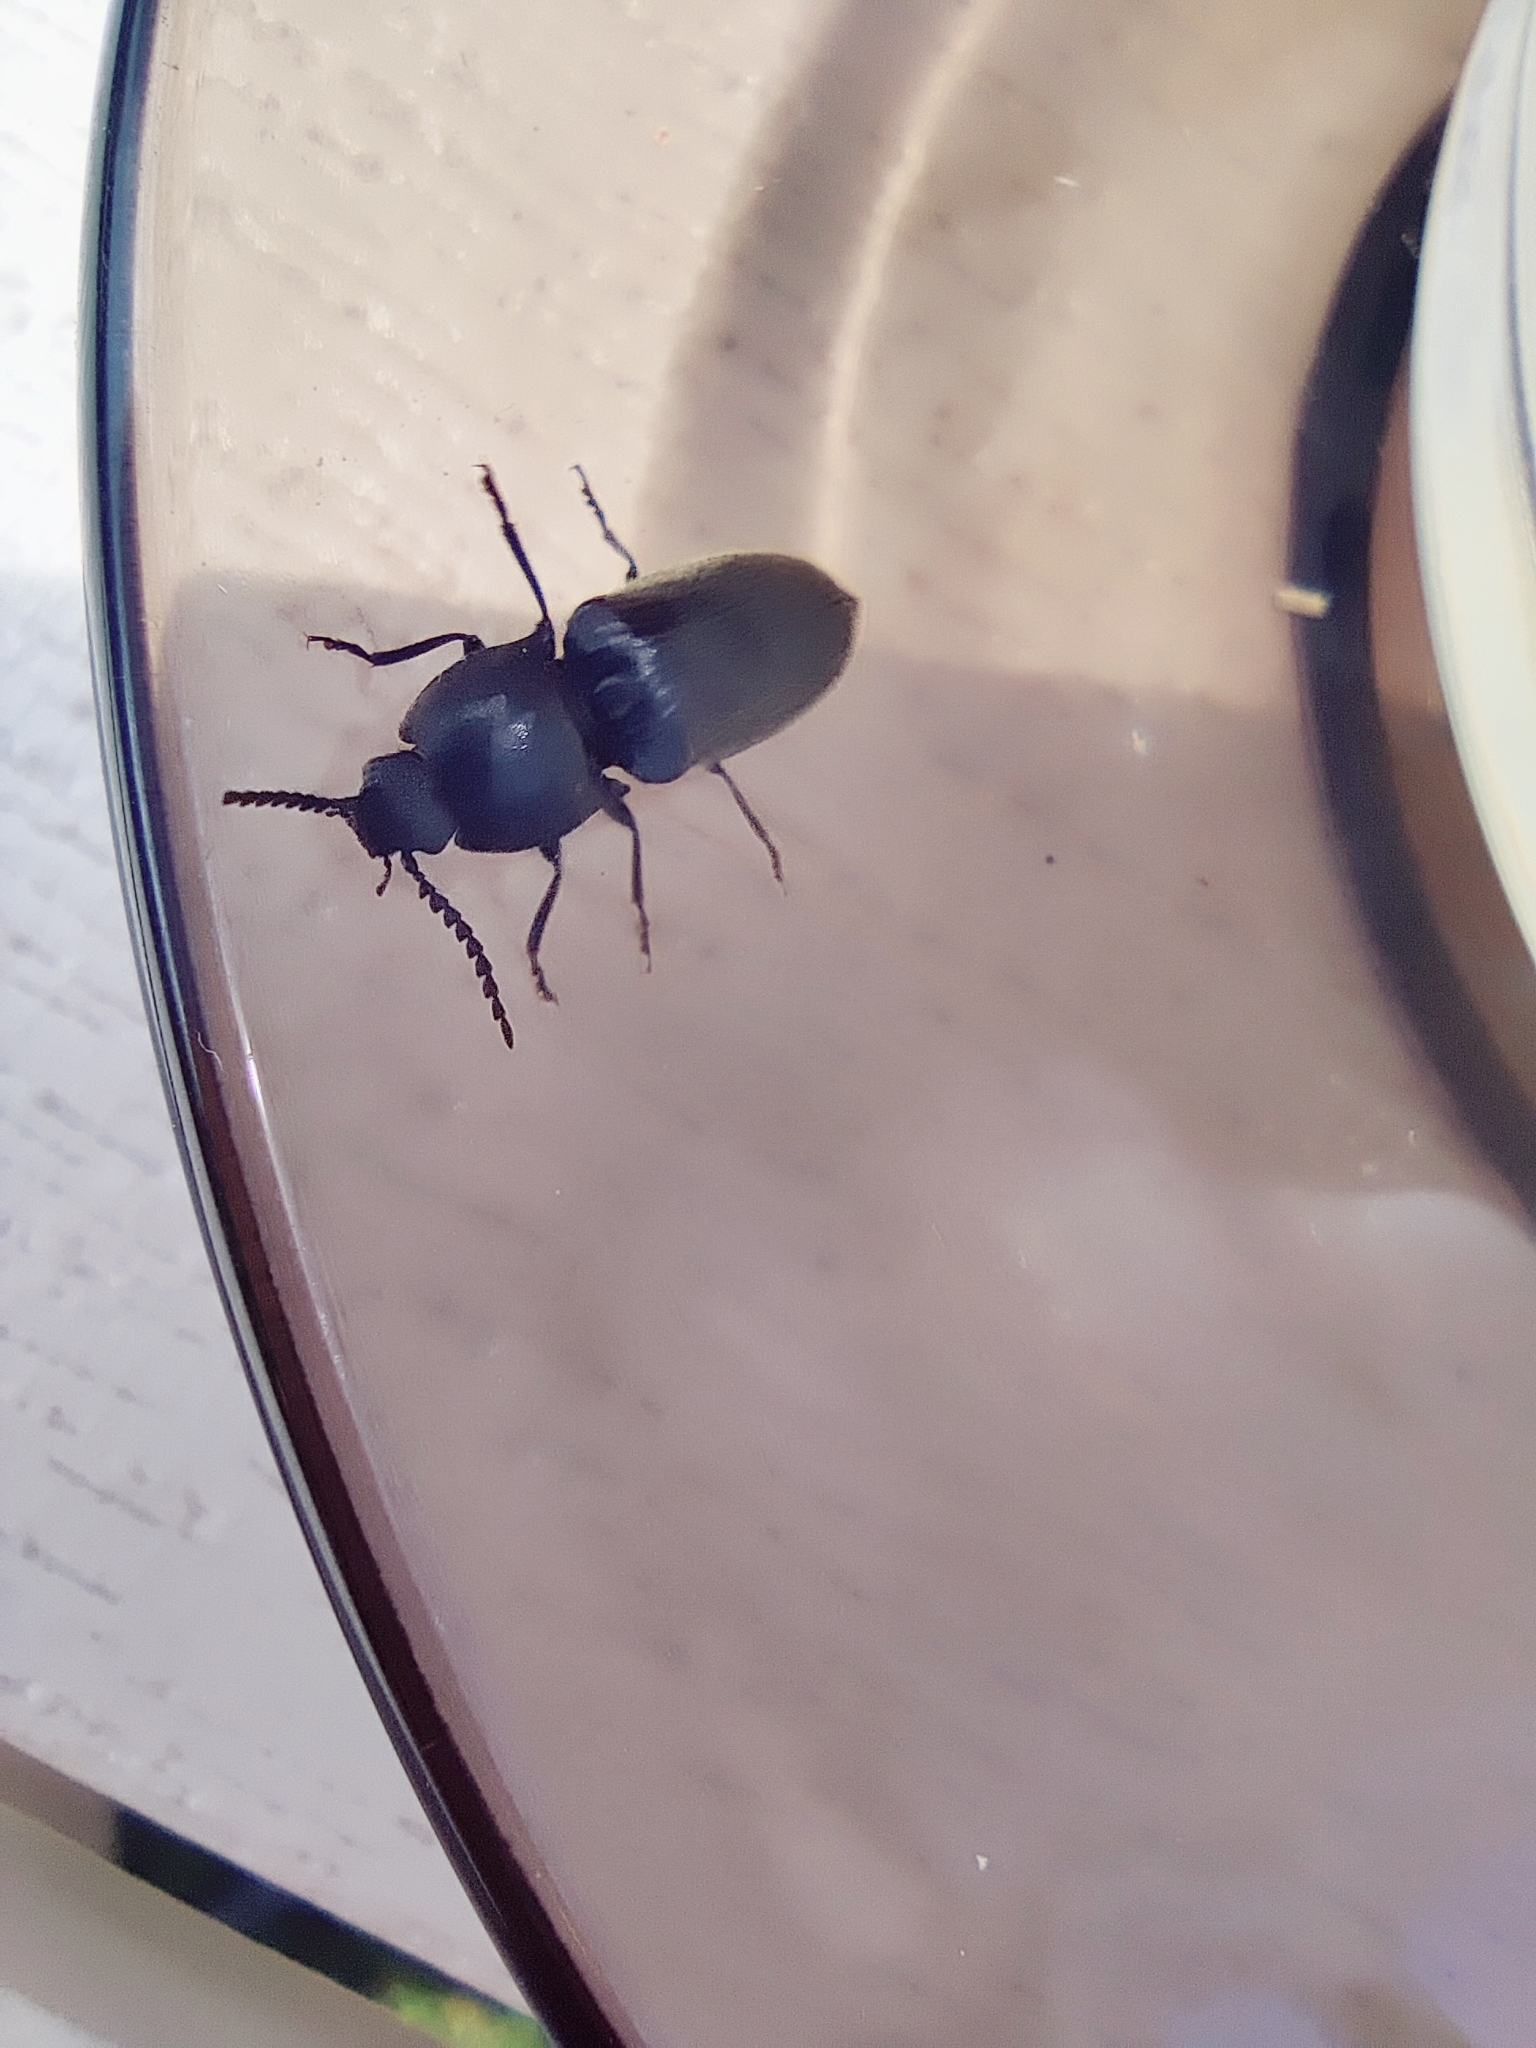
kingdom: Animalia
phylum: Arthropoda
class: Insecta
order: Coleoptera
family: Elateridae
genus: Hemicrepidius
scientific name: Hemicrepidius niger
